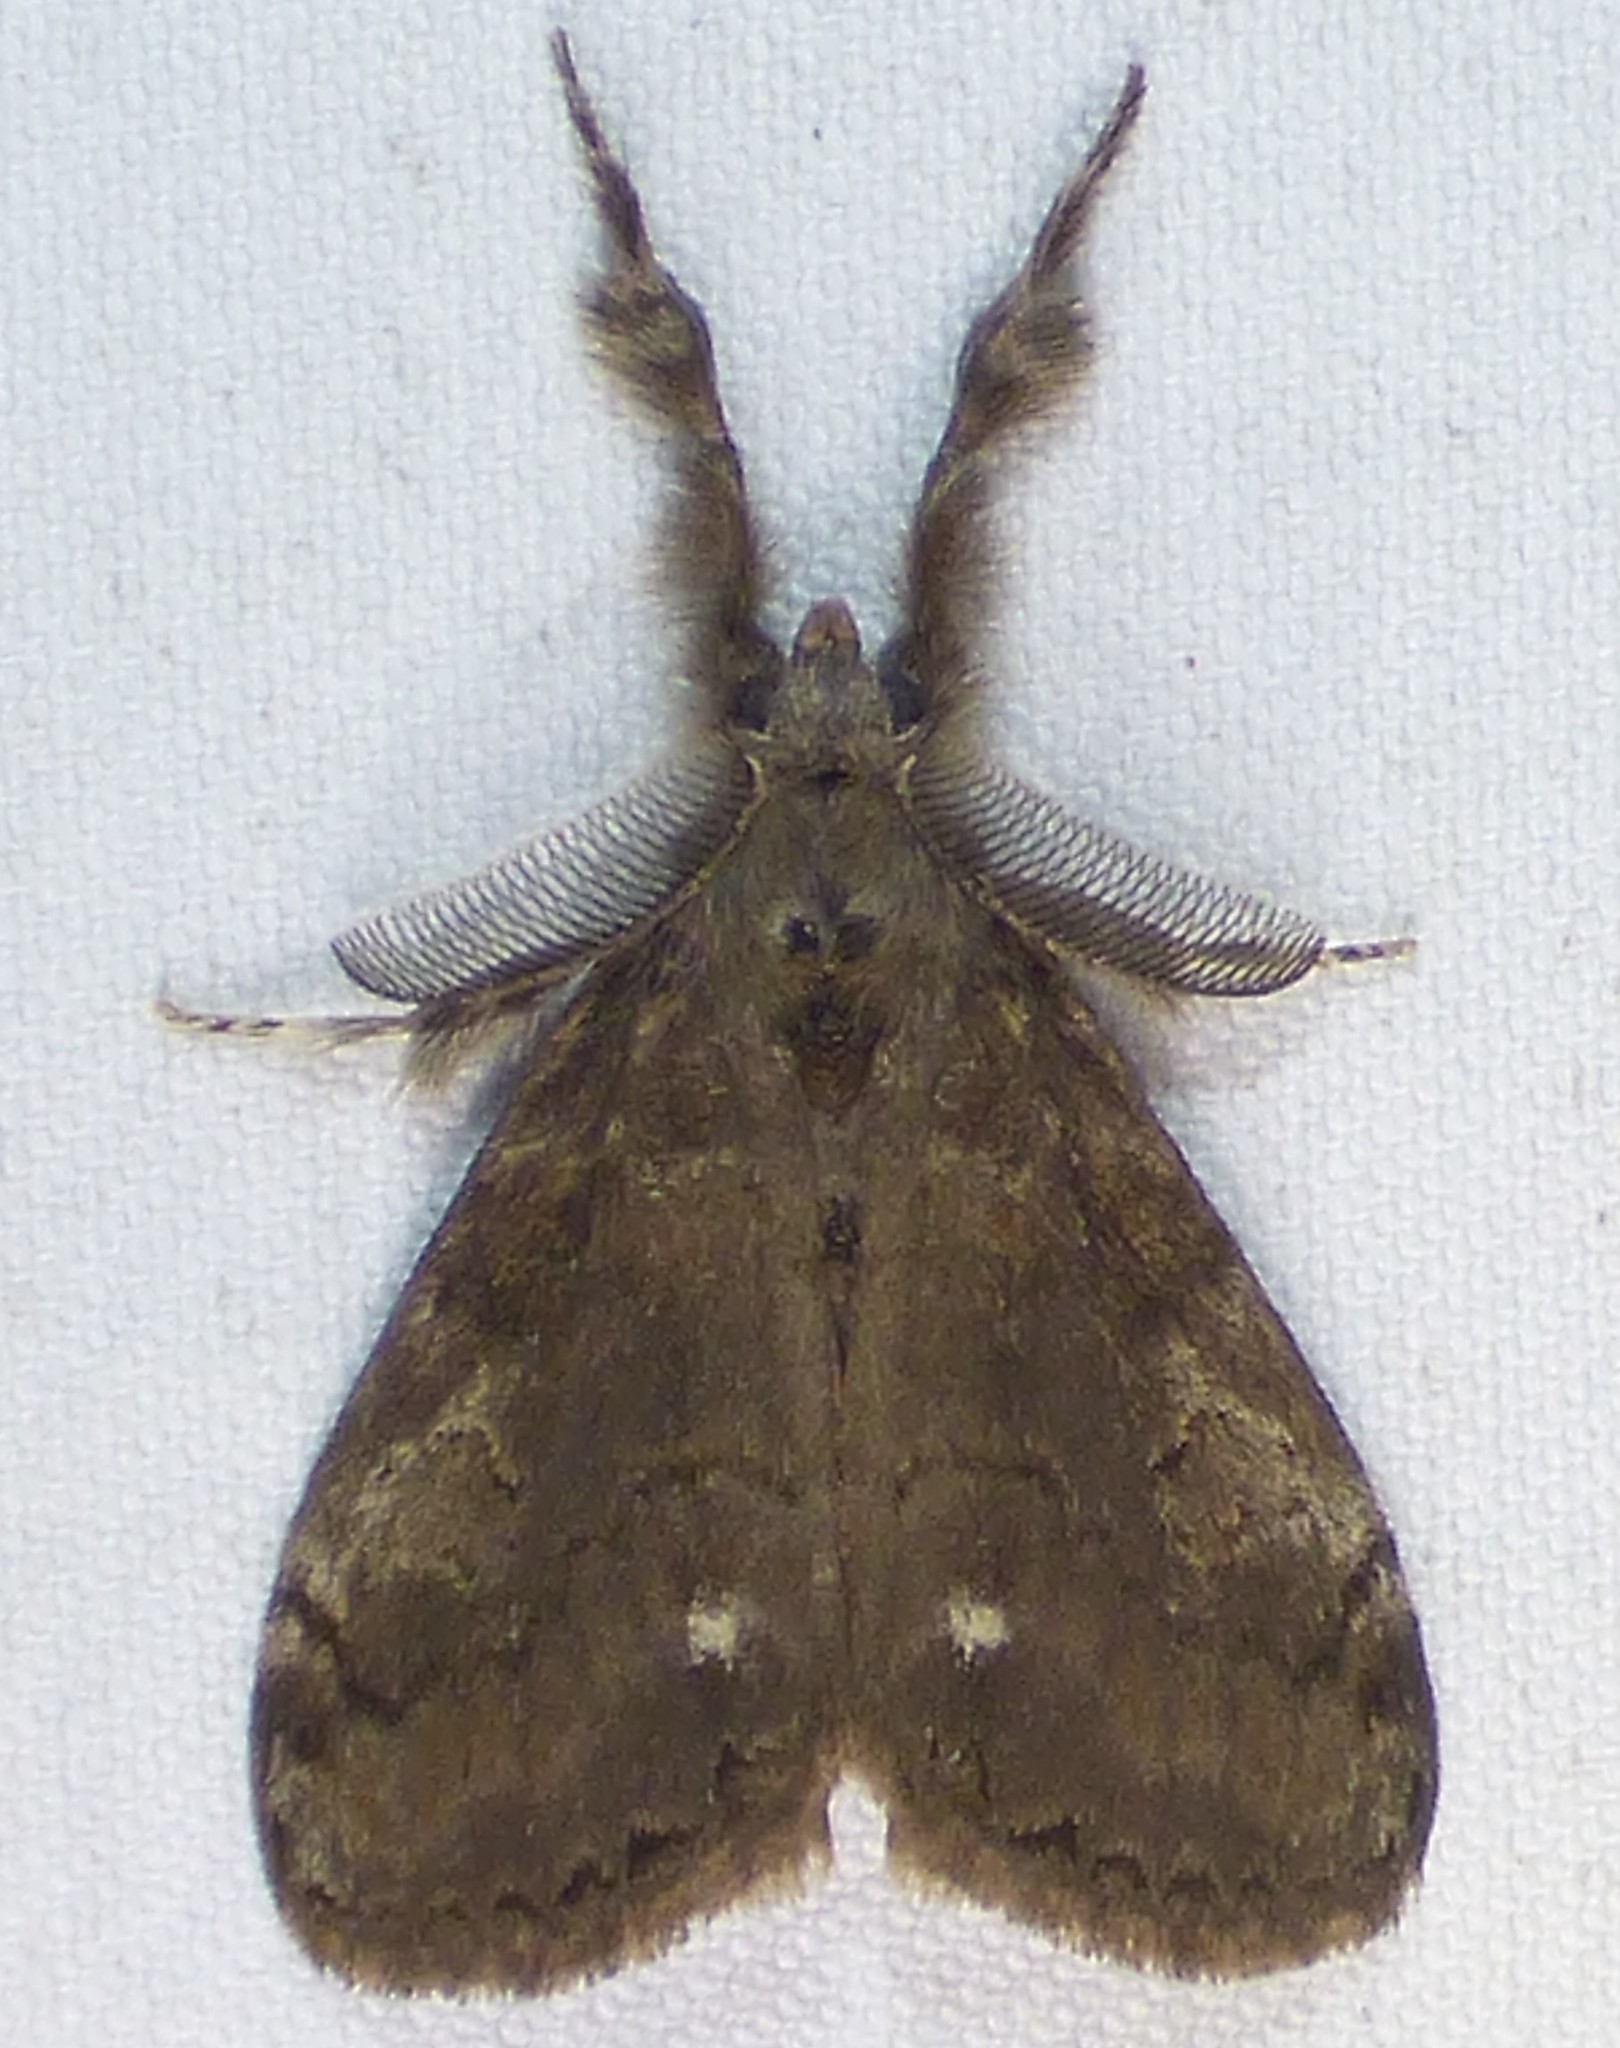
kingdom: Animalia
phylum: Arthropoda
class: Insecta
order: Lepidoptera
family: Erebidae
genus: Orgyia
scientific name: Orgyia leucostigma
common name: White-marked tussock moth
